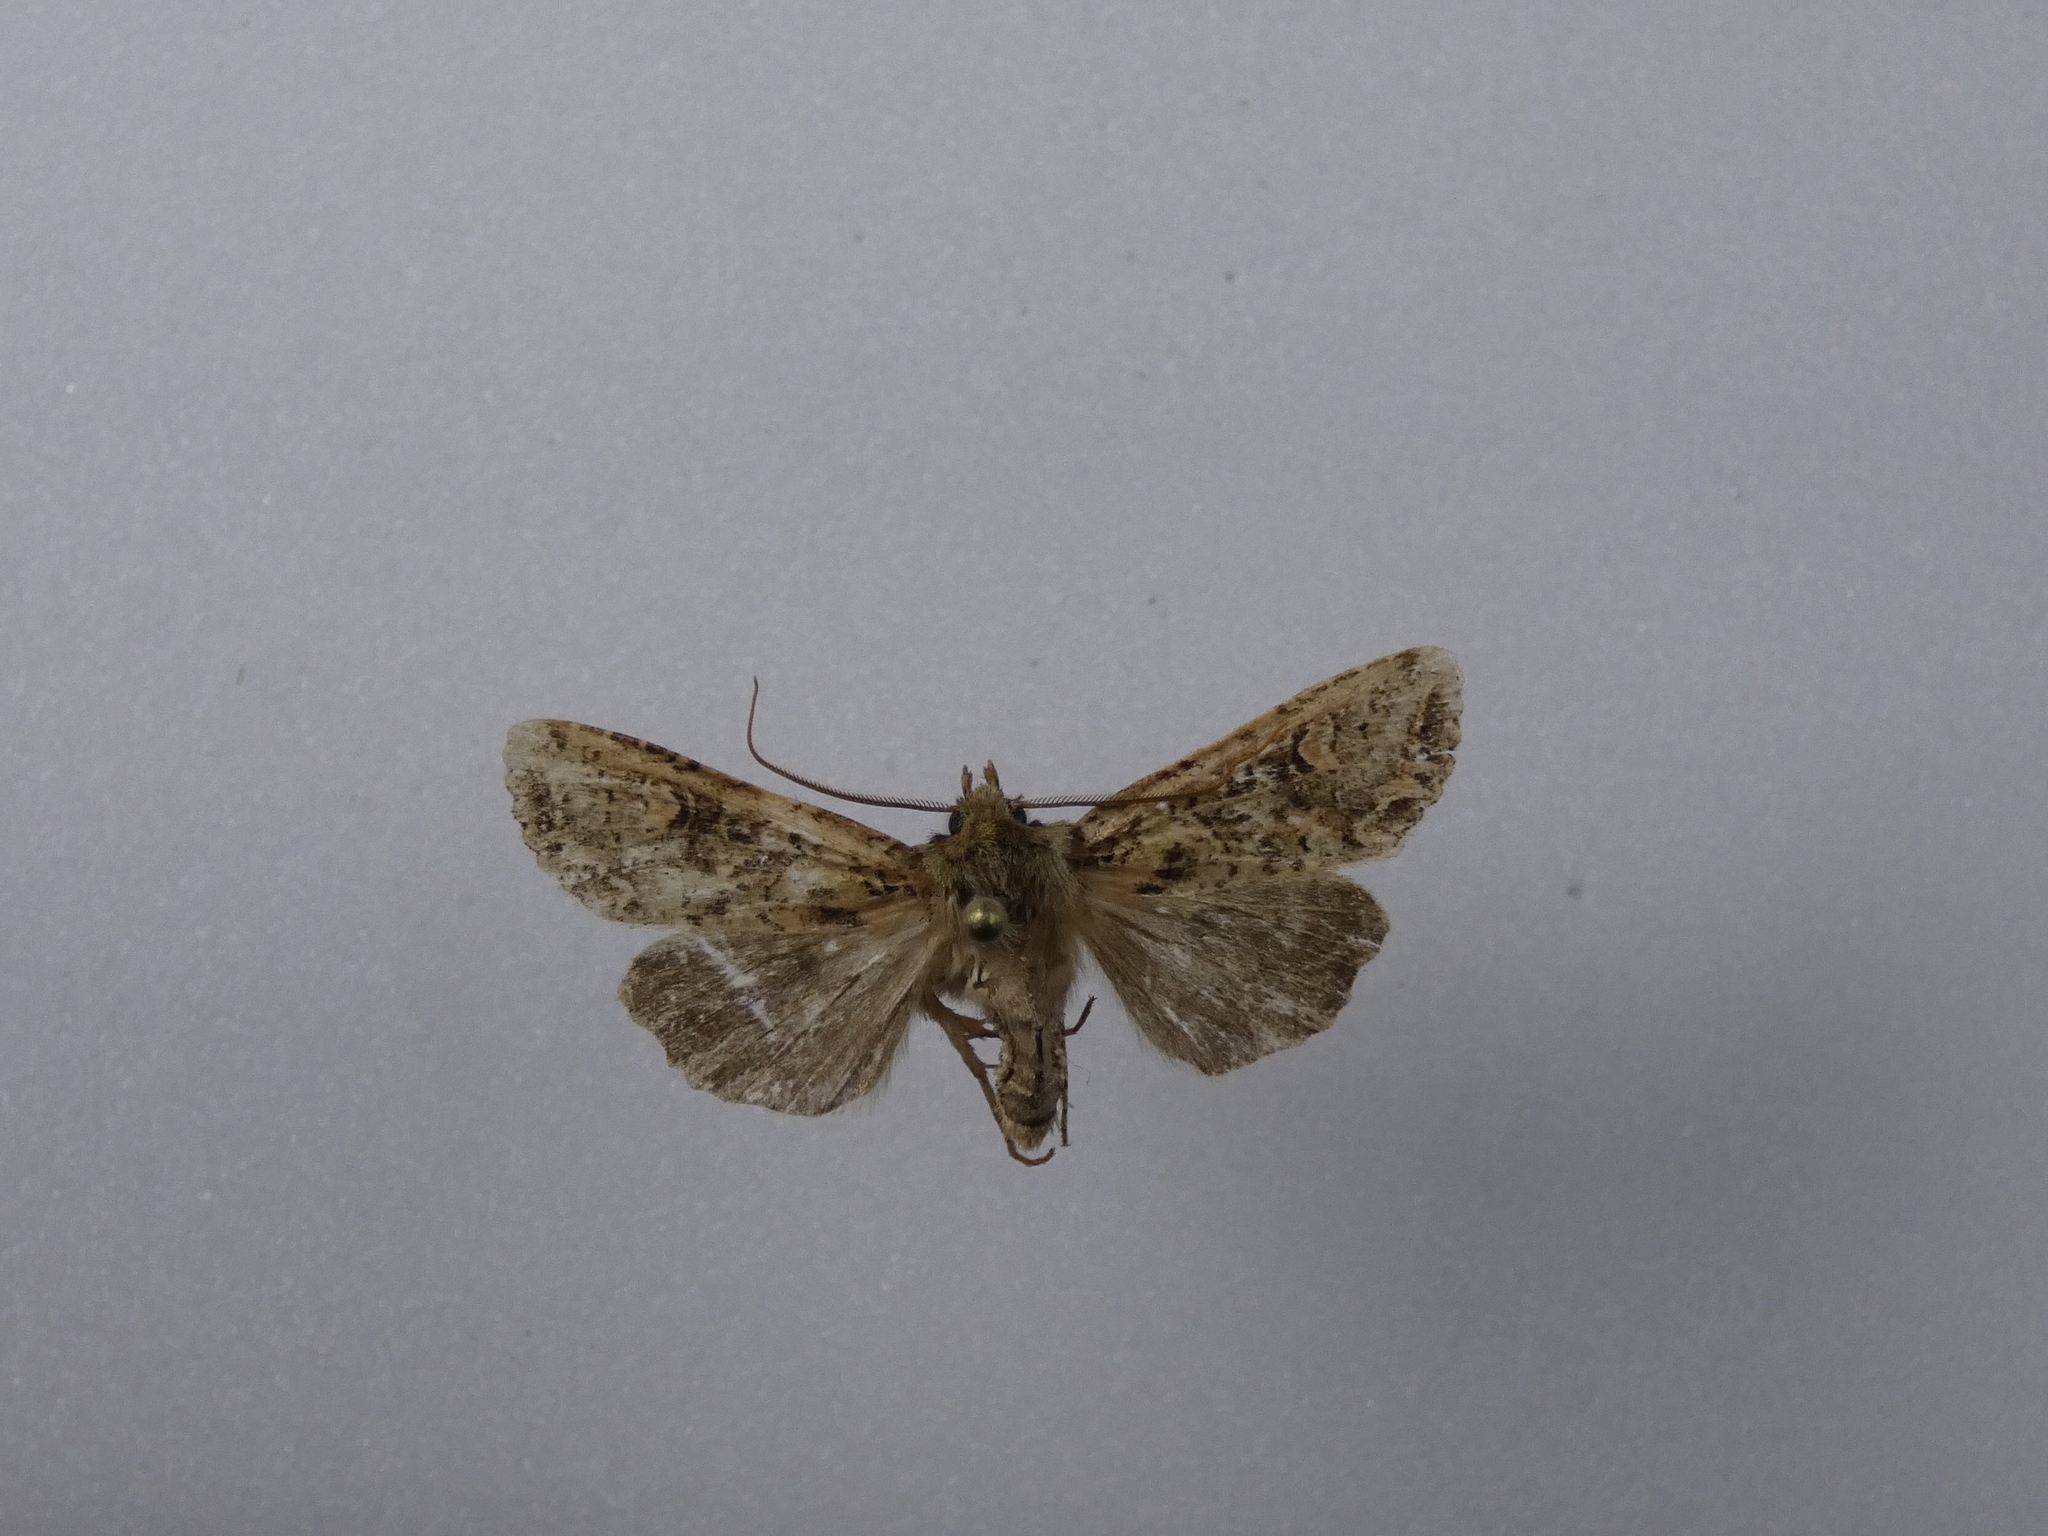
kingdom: Animalia
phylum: Arthropoda
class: Insecta
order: Lepidoptera
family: Noctuidae
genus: Ichneutica
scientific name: Ichneutica
